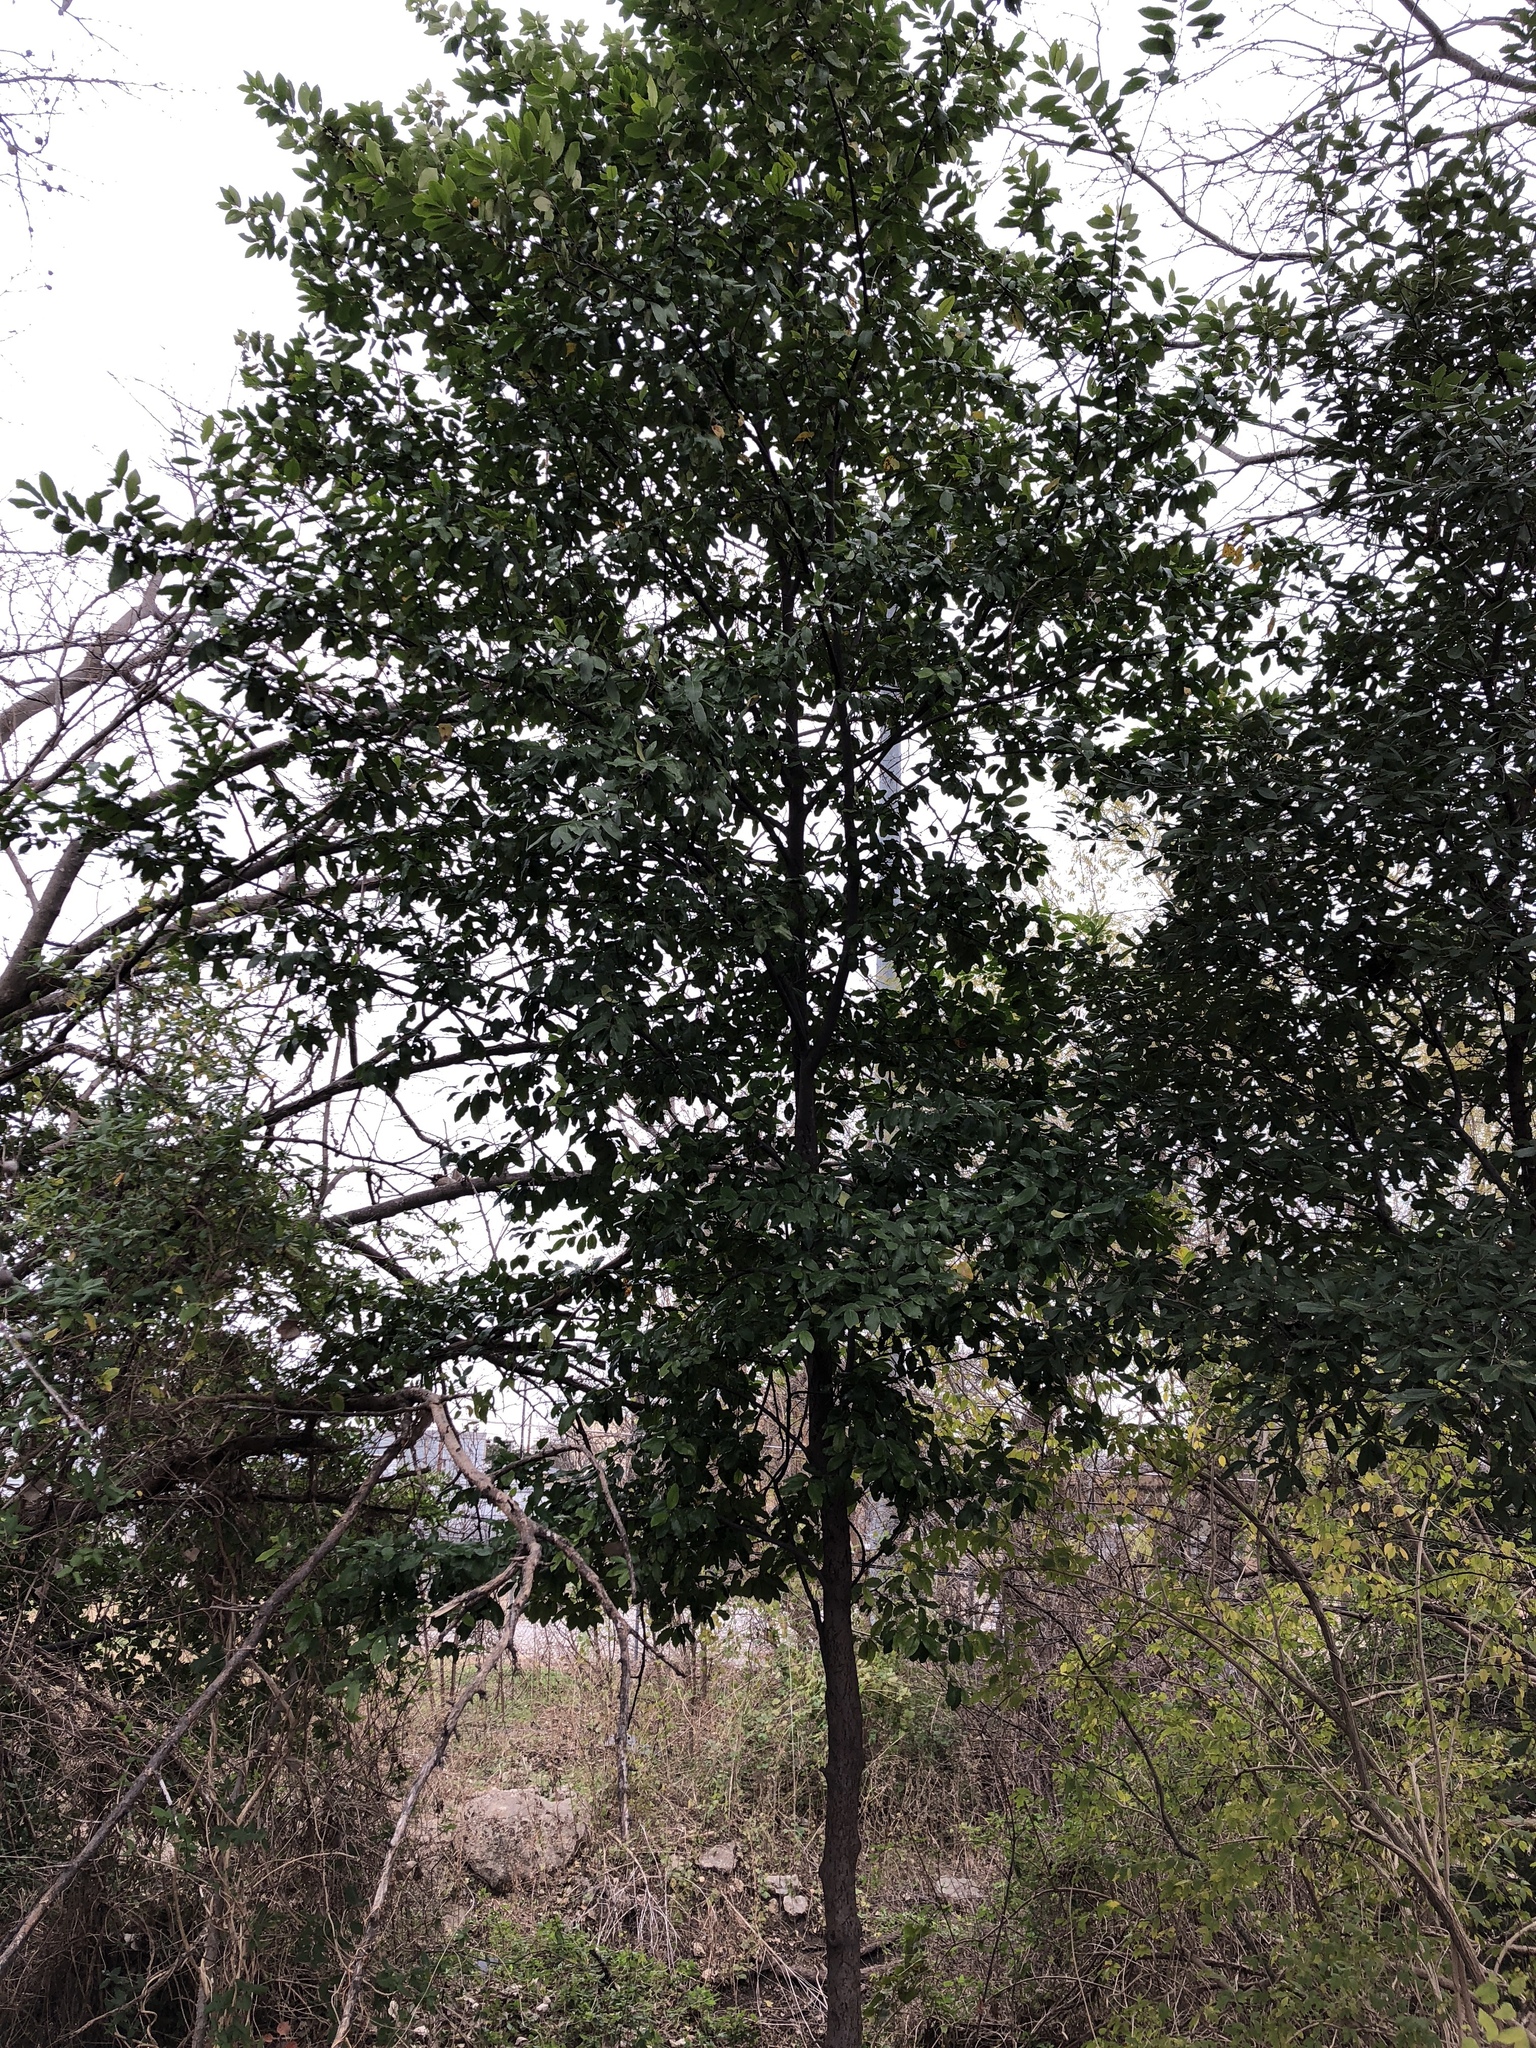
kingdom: Plantae
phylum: Tracheophyta
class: Magnoliopsida
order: Rosales
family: Rosaceae
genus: Prunus
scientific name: Prunus caroliniana
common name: Carolina laurel cherry
